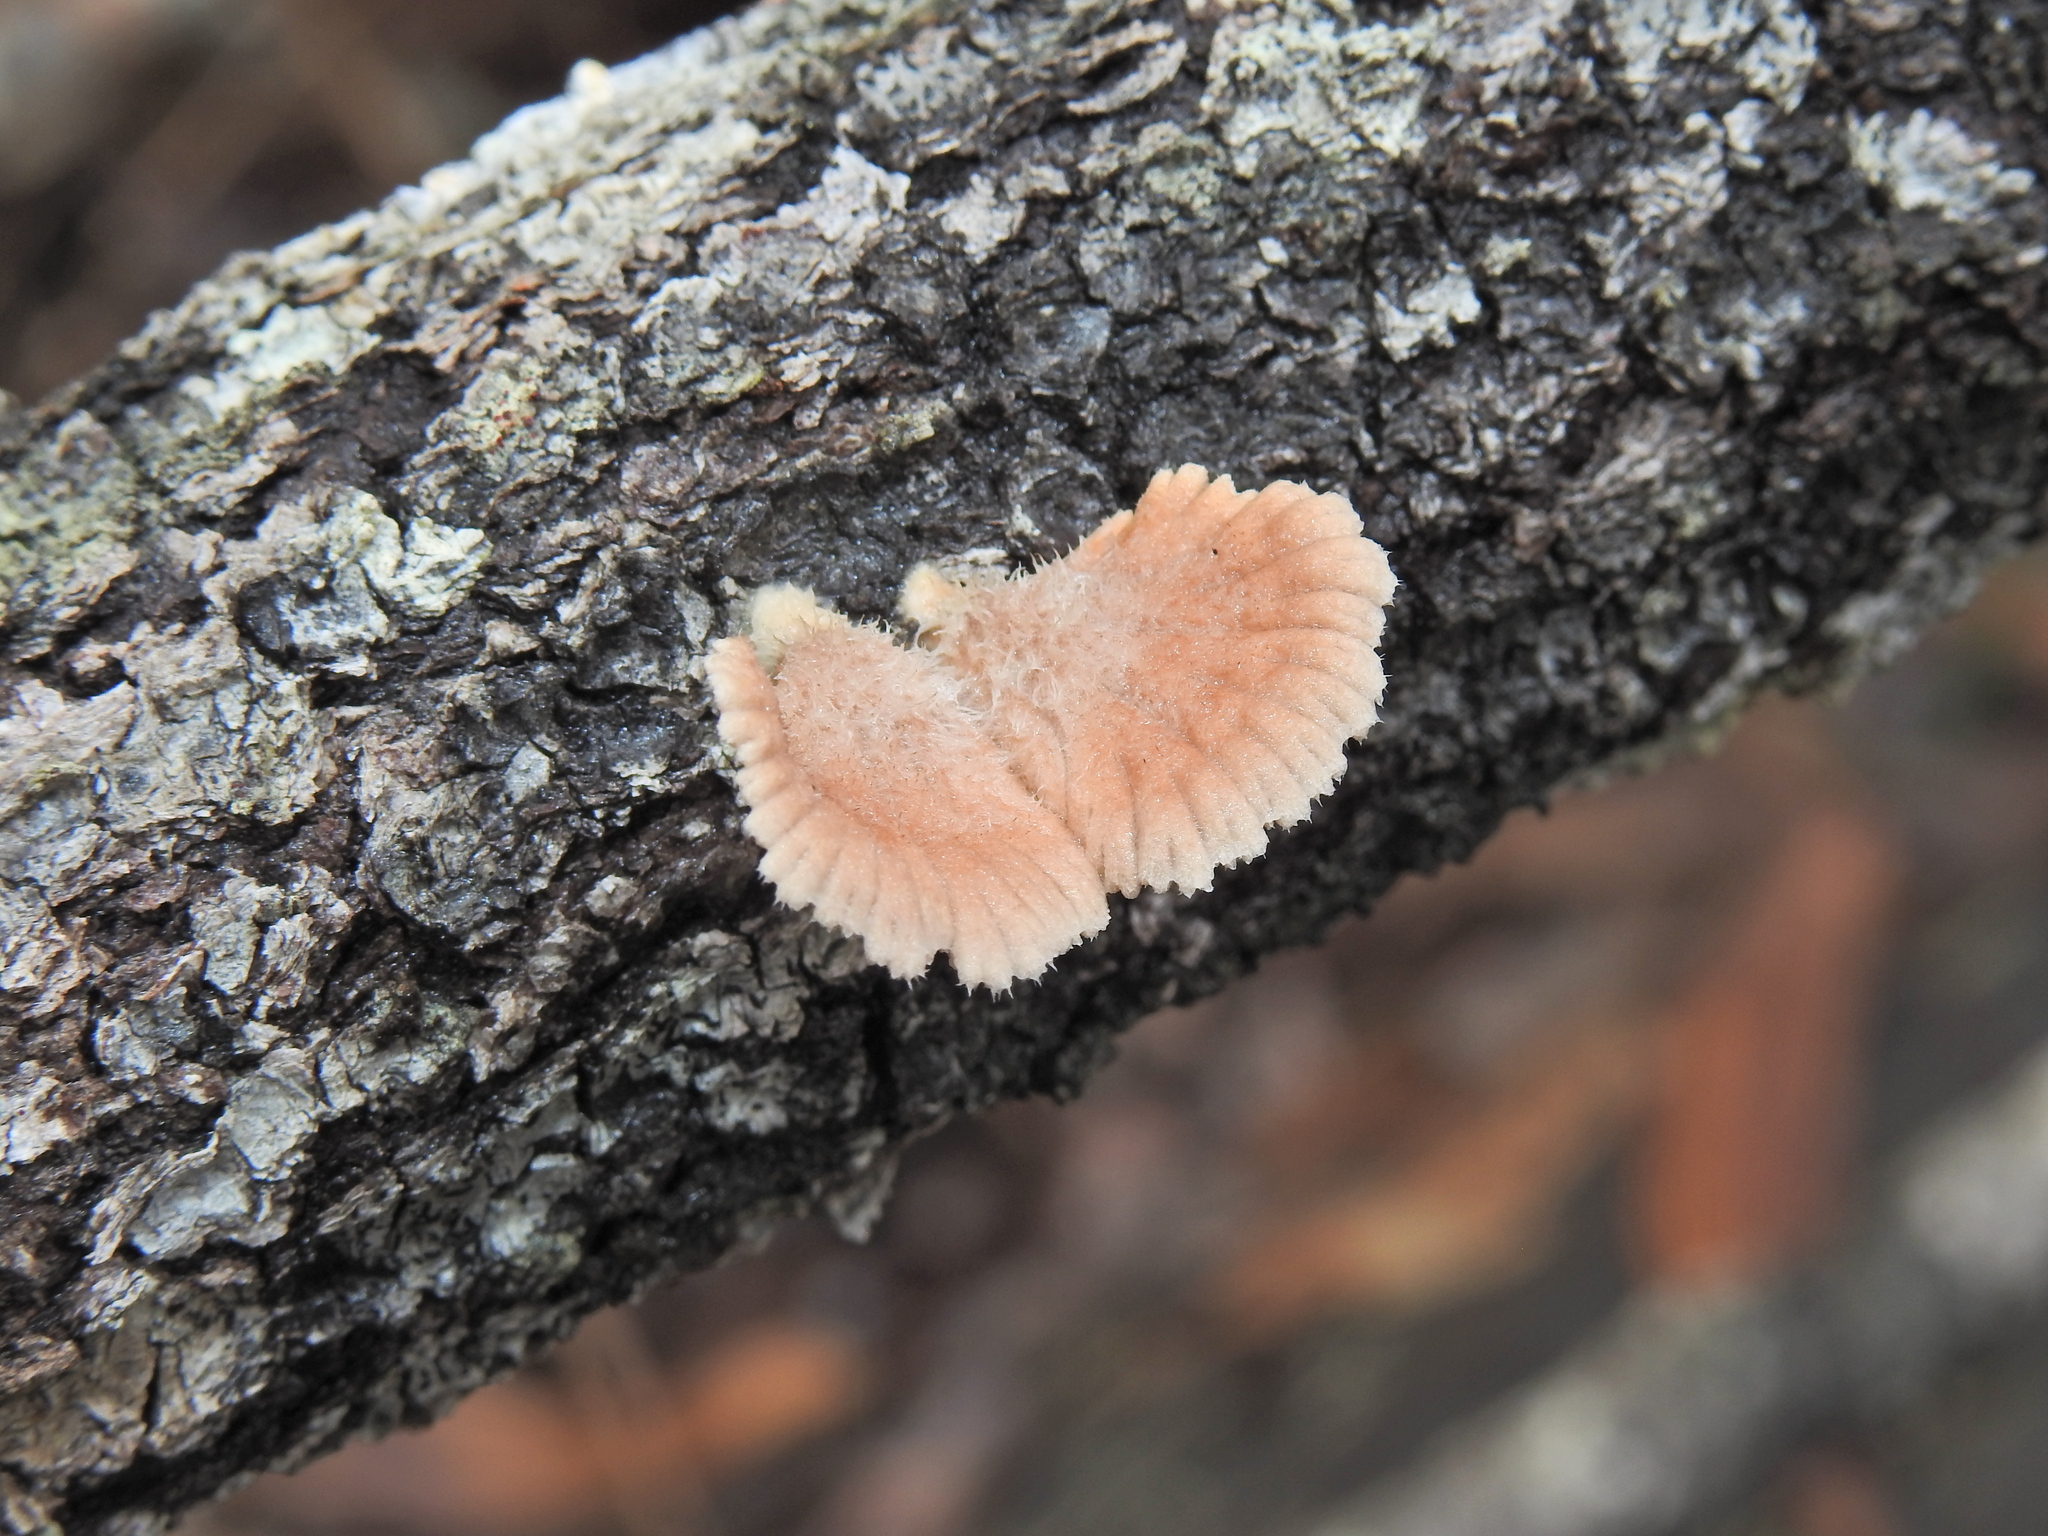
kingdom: Fungi
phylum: Basidiomycota
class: Agaricomycetes
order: Agaricales
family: Schizophyllaceae
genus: Schizophyllum
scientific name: Schizophyllum commune
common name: Common porecrust
